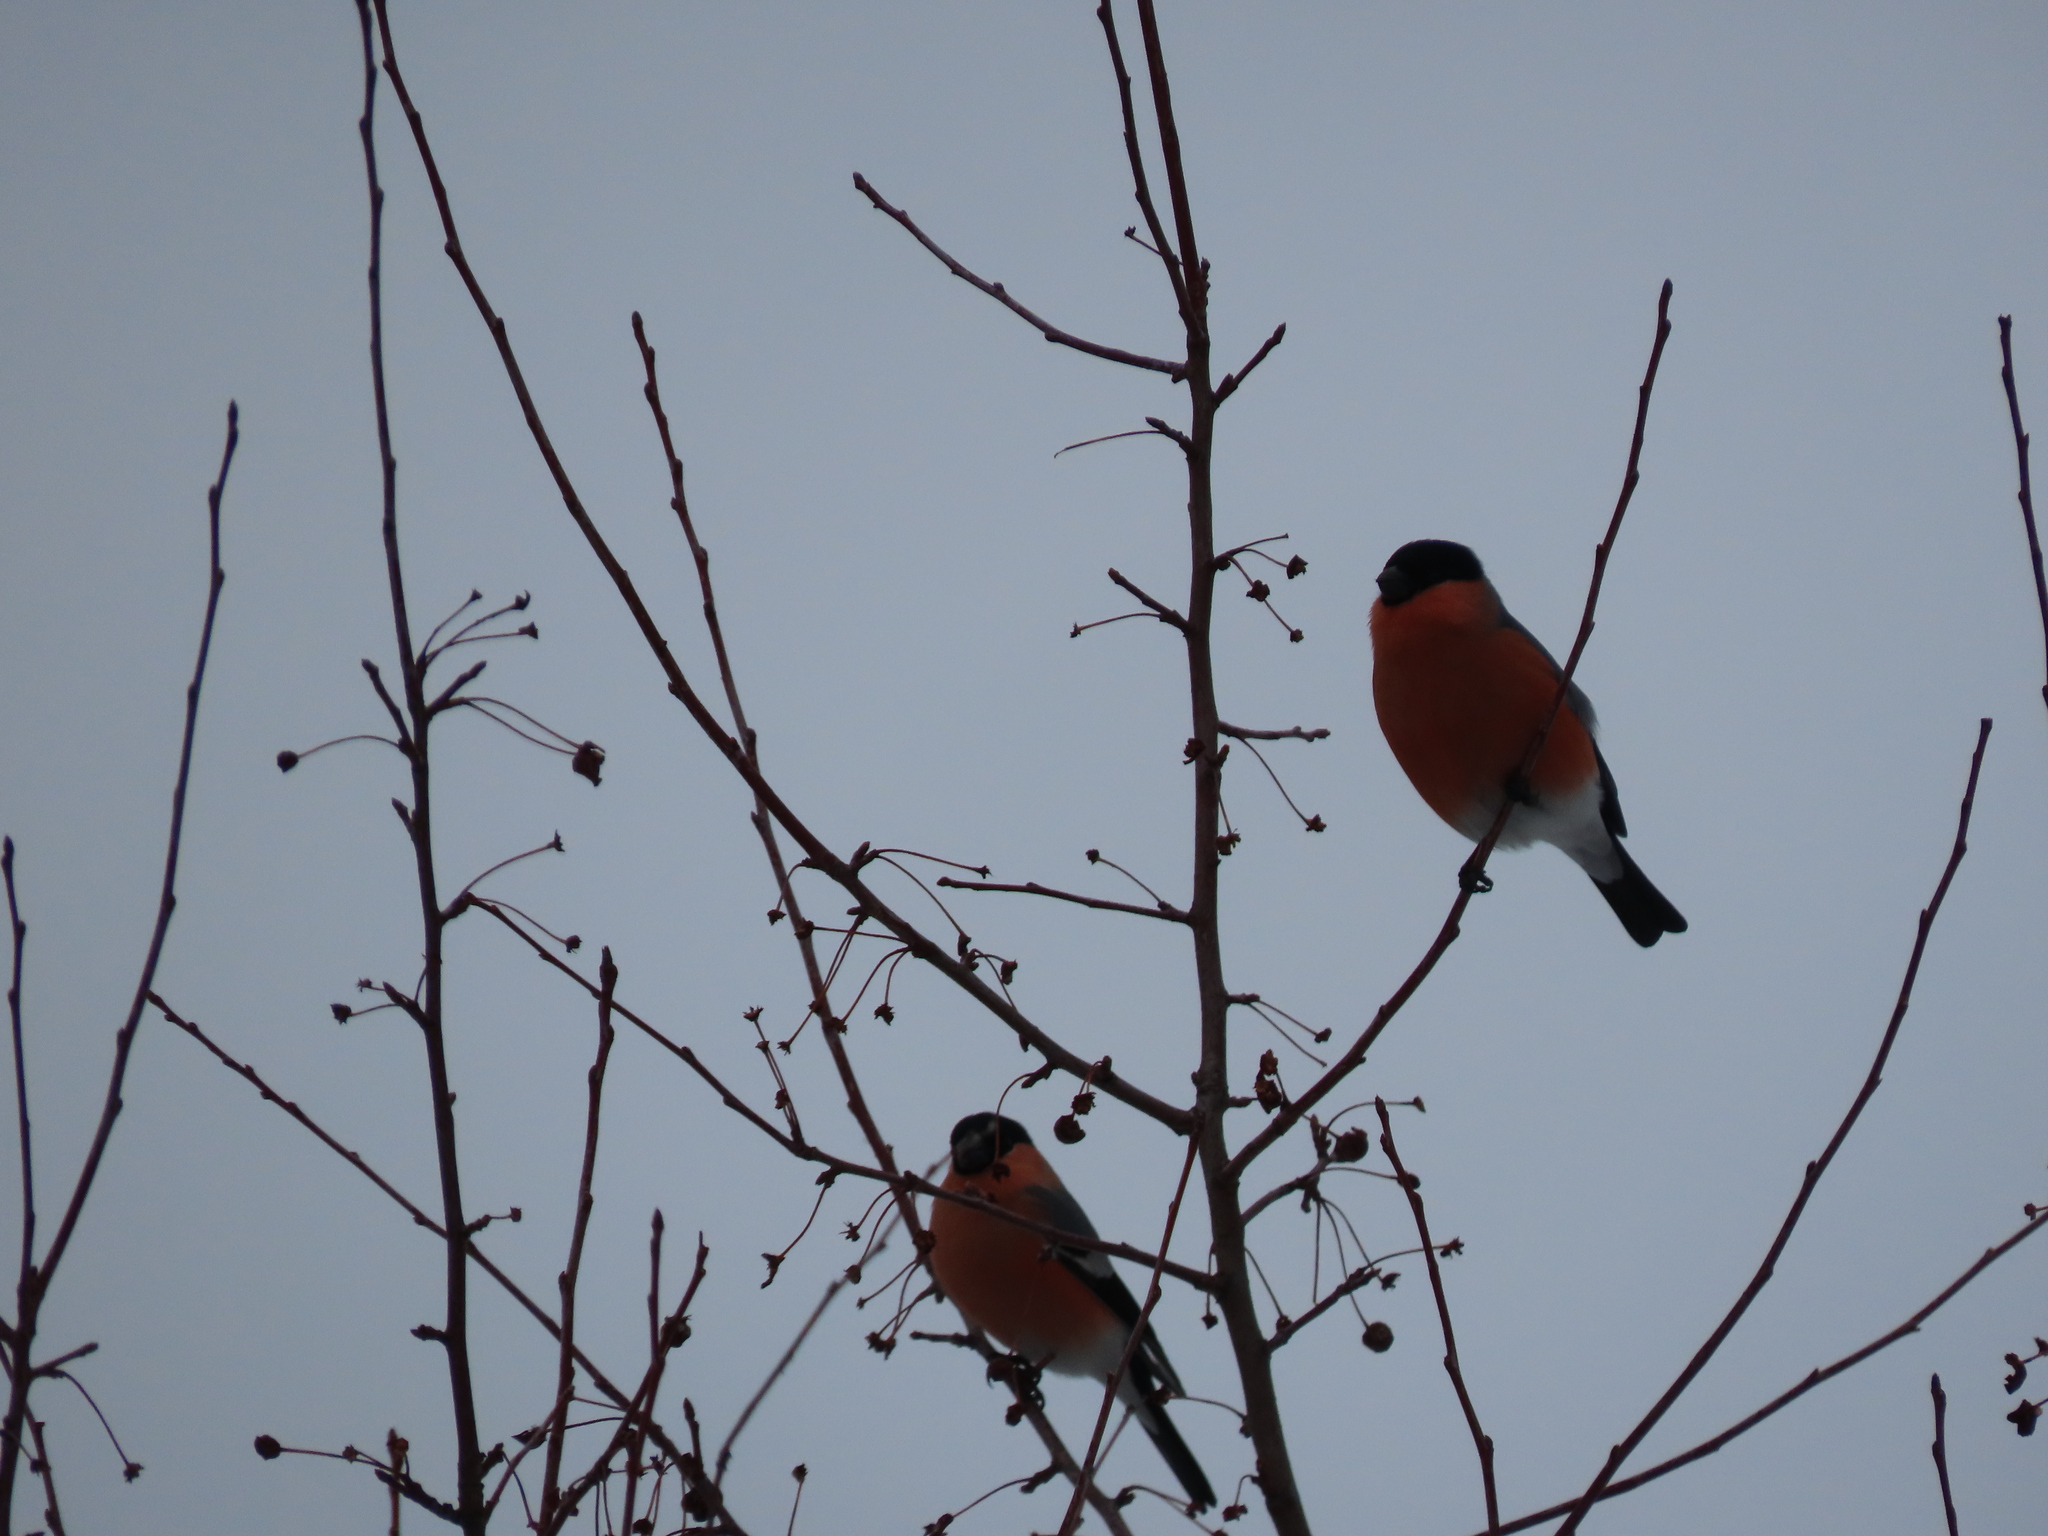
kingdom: Animalia
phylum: Chordata
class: Aves
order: Passeriformes
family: Fringillidae
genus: Pyrrhula
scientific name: Pyrrhula pyrrhula
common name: Eurasian bullfinch
